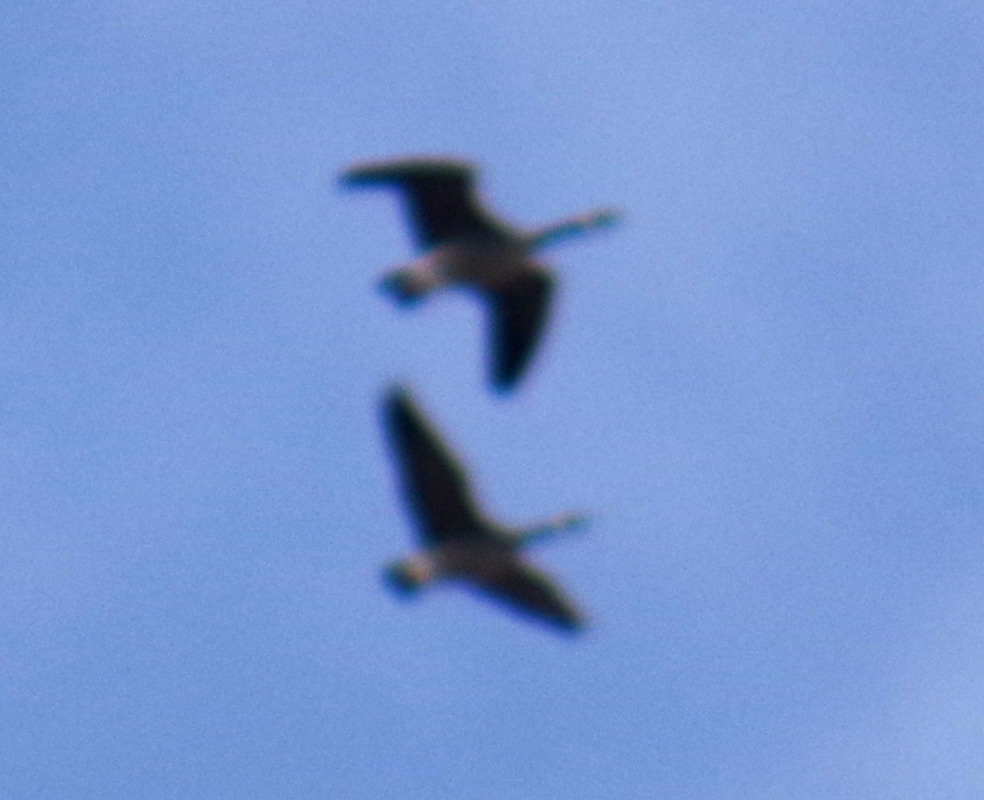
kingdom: Animalia
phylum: Chordata
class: Aves
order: Anseriformes
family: Anatidae
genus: Branta
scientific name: Branta canadensis
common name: Canada goose
